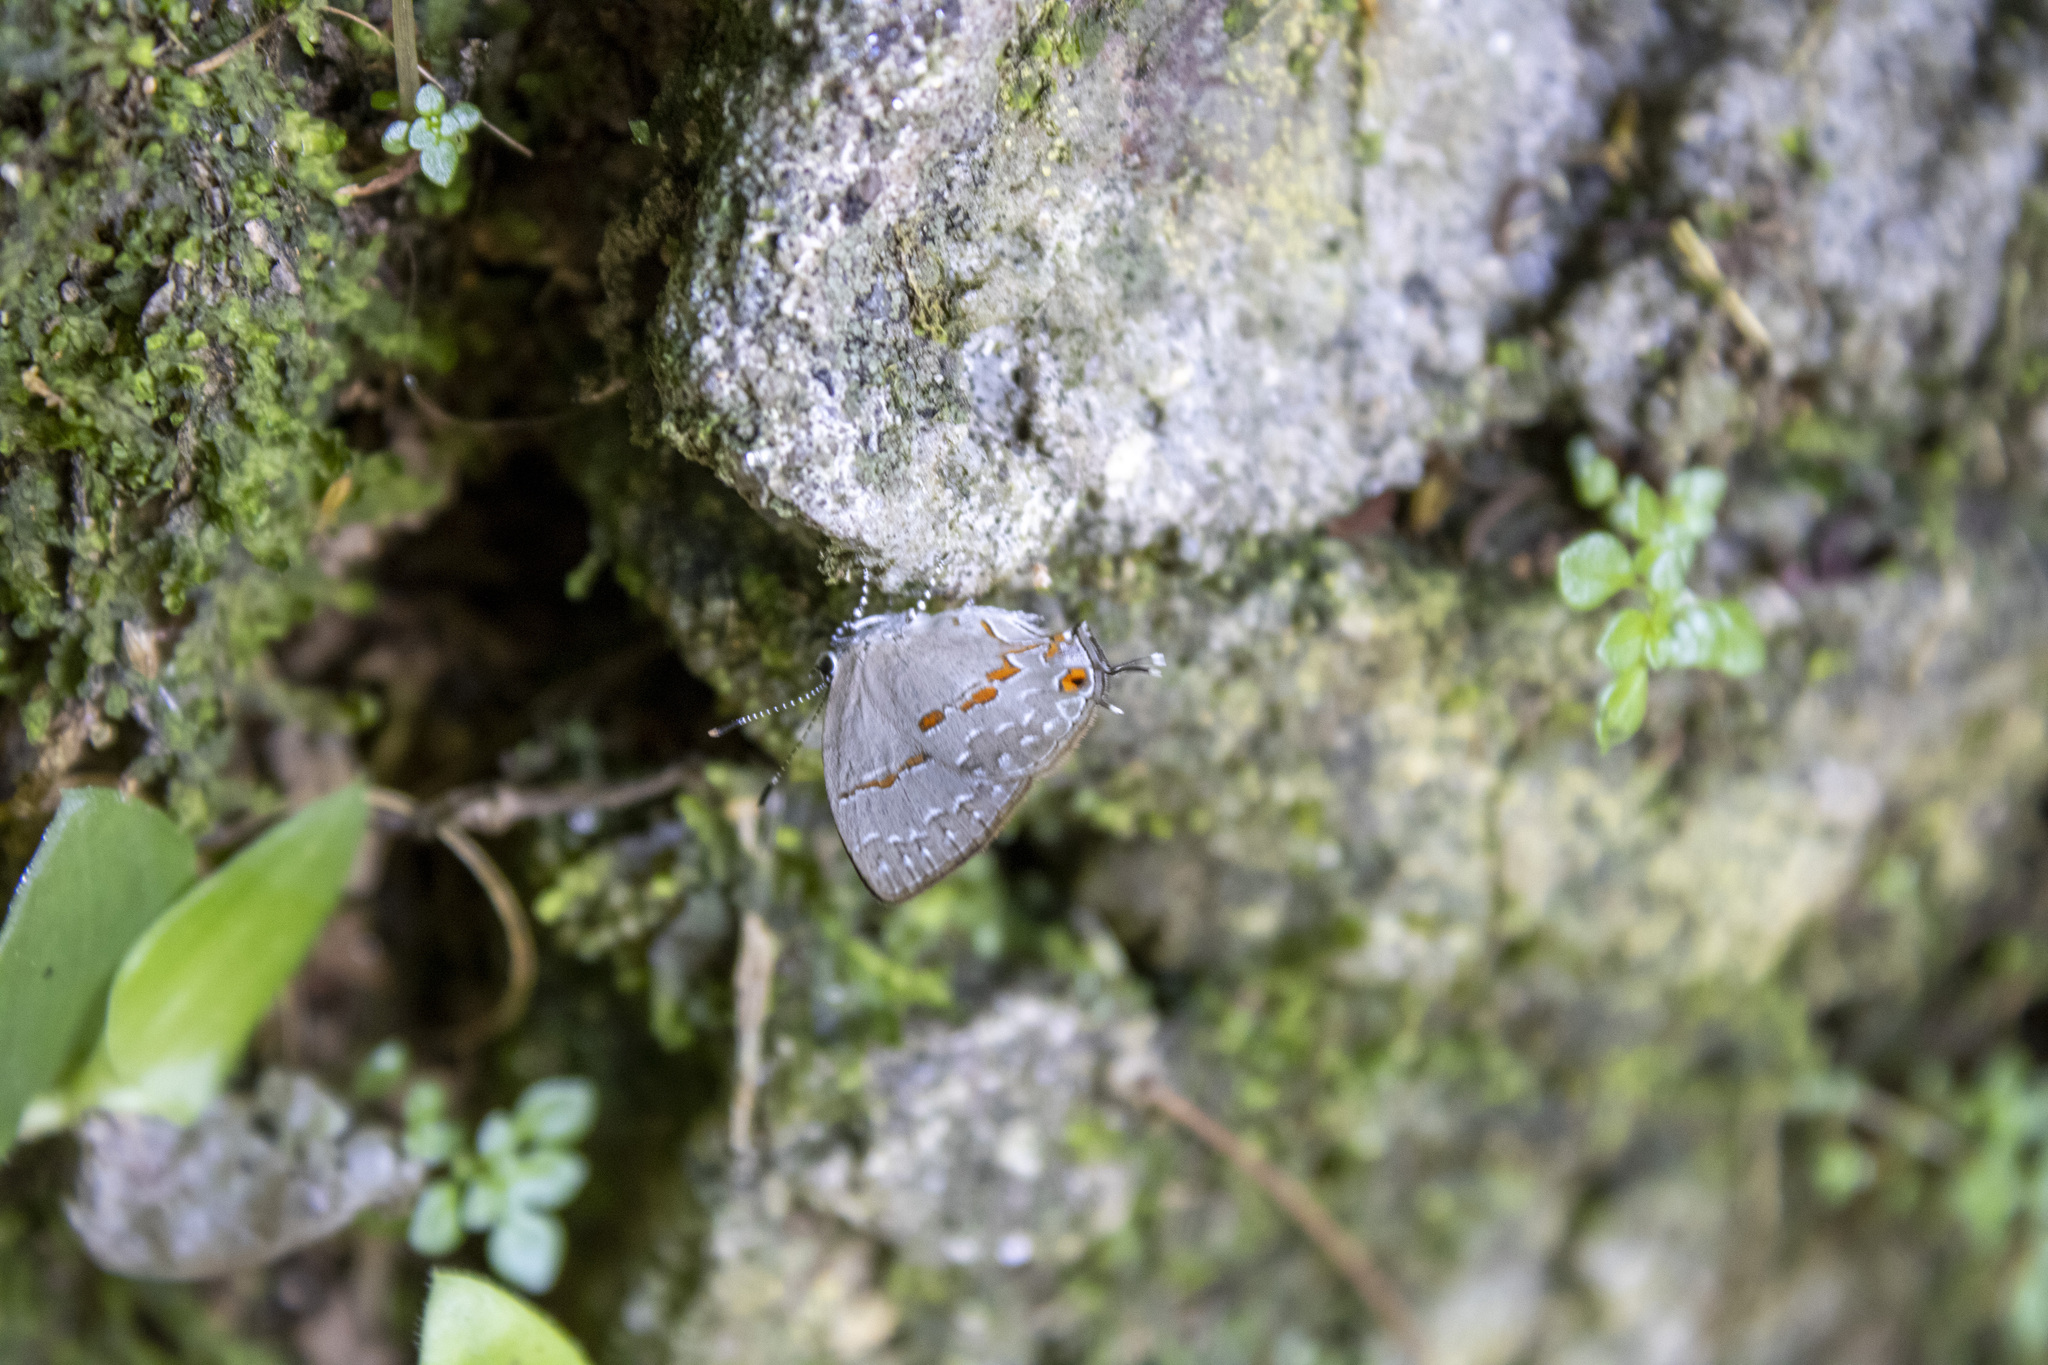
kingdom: Animalia
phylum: Arthropoda
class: Insecta
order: Lepidoptera
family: Lycaenidae
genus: Thecla
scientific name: Thecla asa
